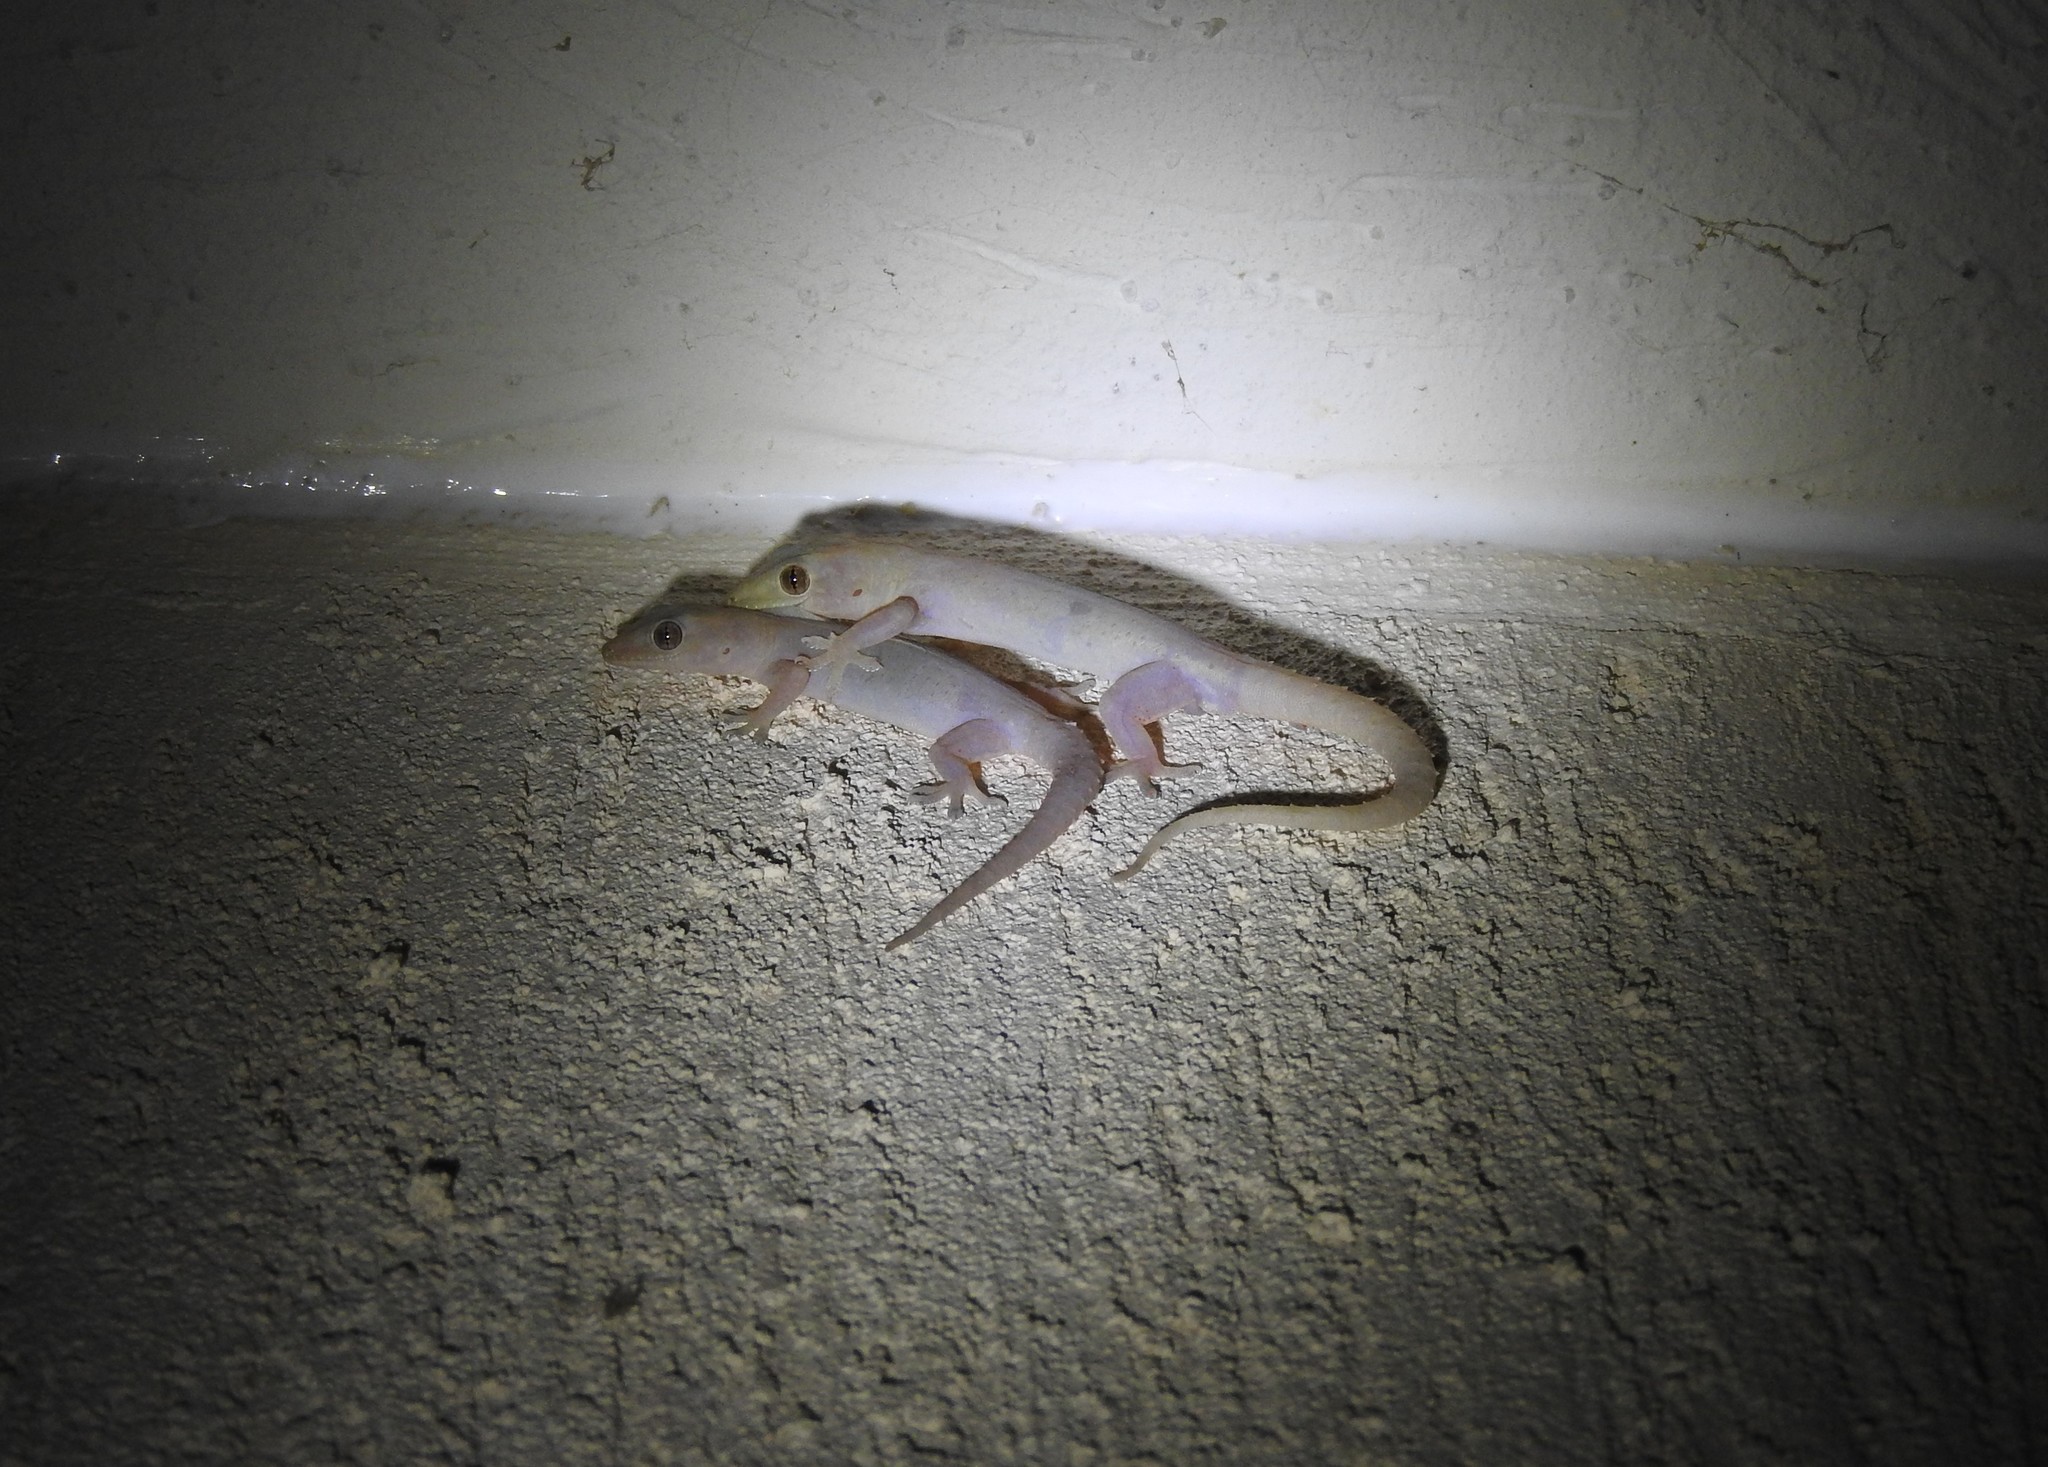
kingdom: Animalia
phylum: Chordata
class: Squamata
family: Gekkonidae
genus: Hemidactylus
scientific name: Hemidactylus frenatus
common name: Common house gecko
